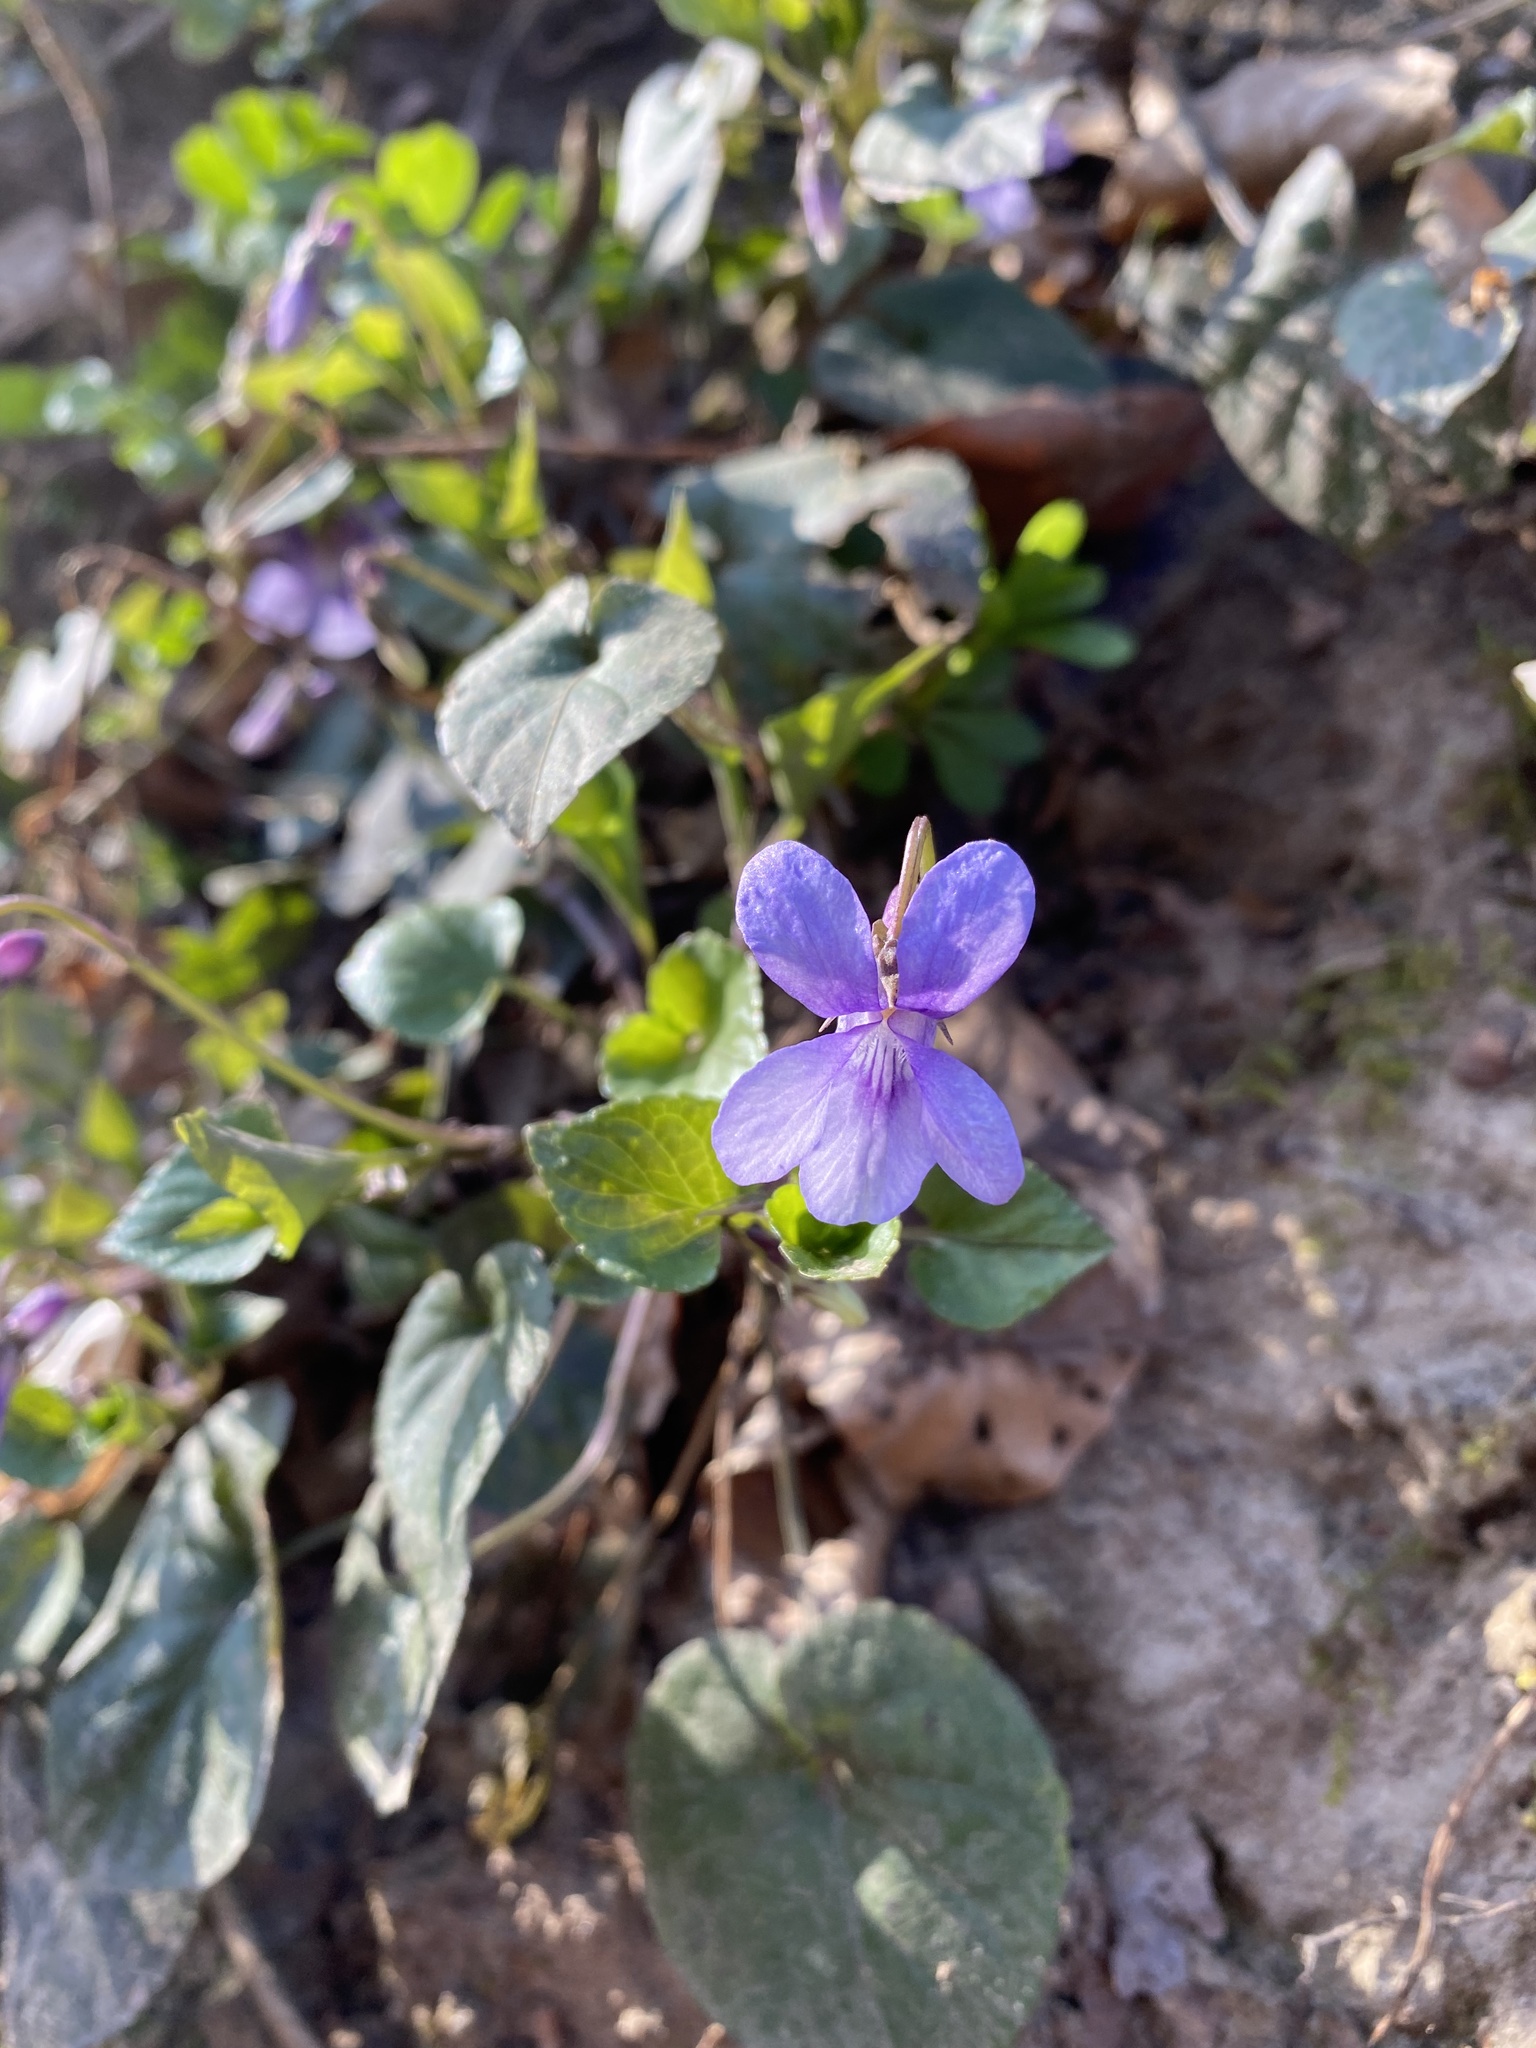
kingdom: Plantae
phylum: Tracheophyta
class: Magnoliopsida
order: Malpighiales
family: Violaceae
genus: Viola
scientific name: Viola reichenbachiana
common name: Early dog-violet
